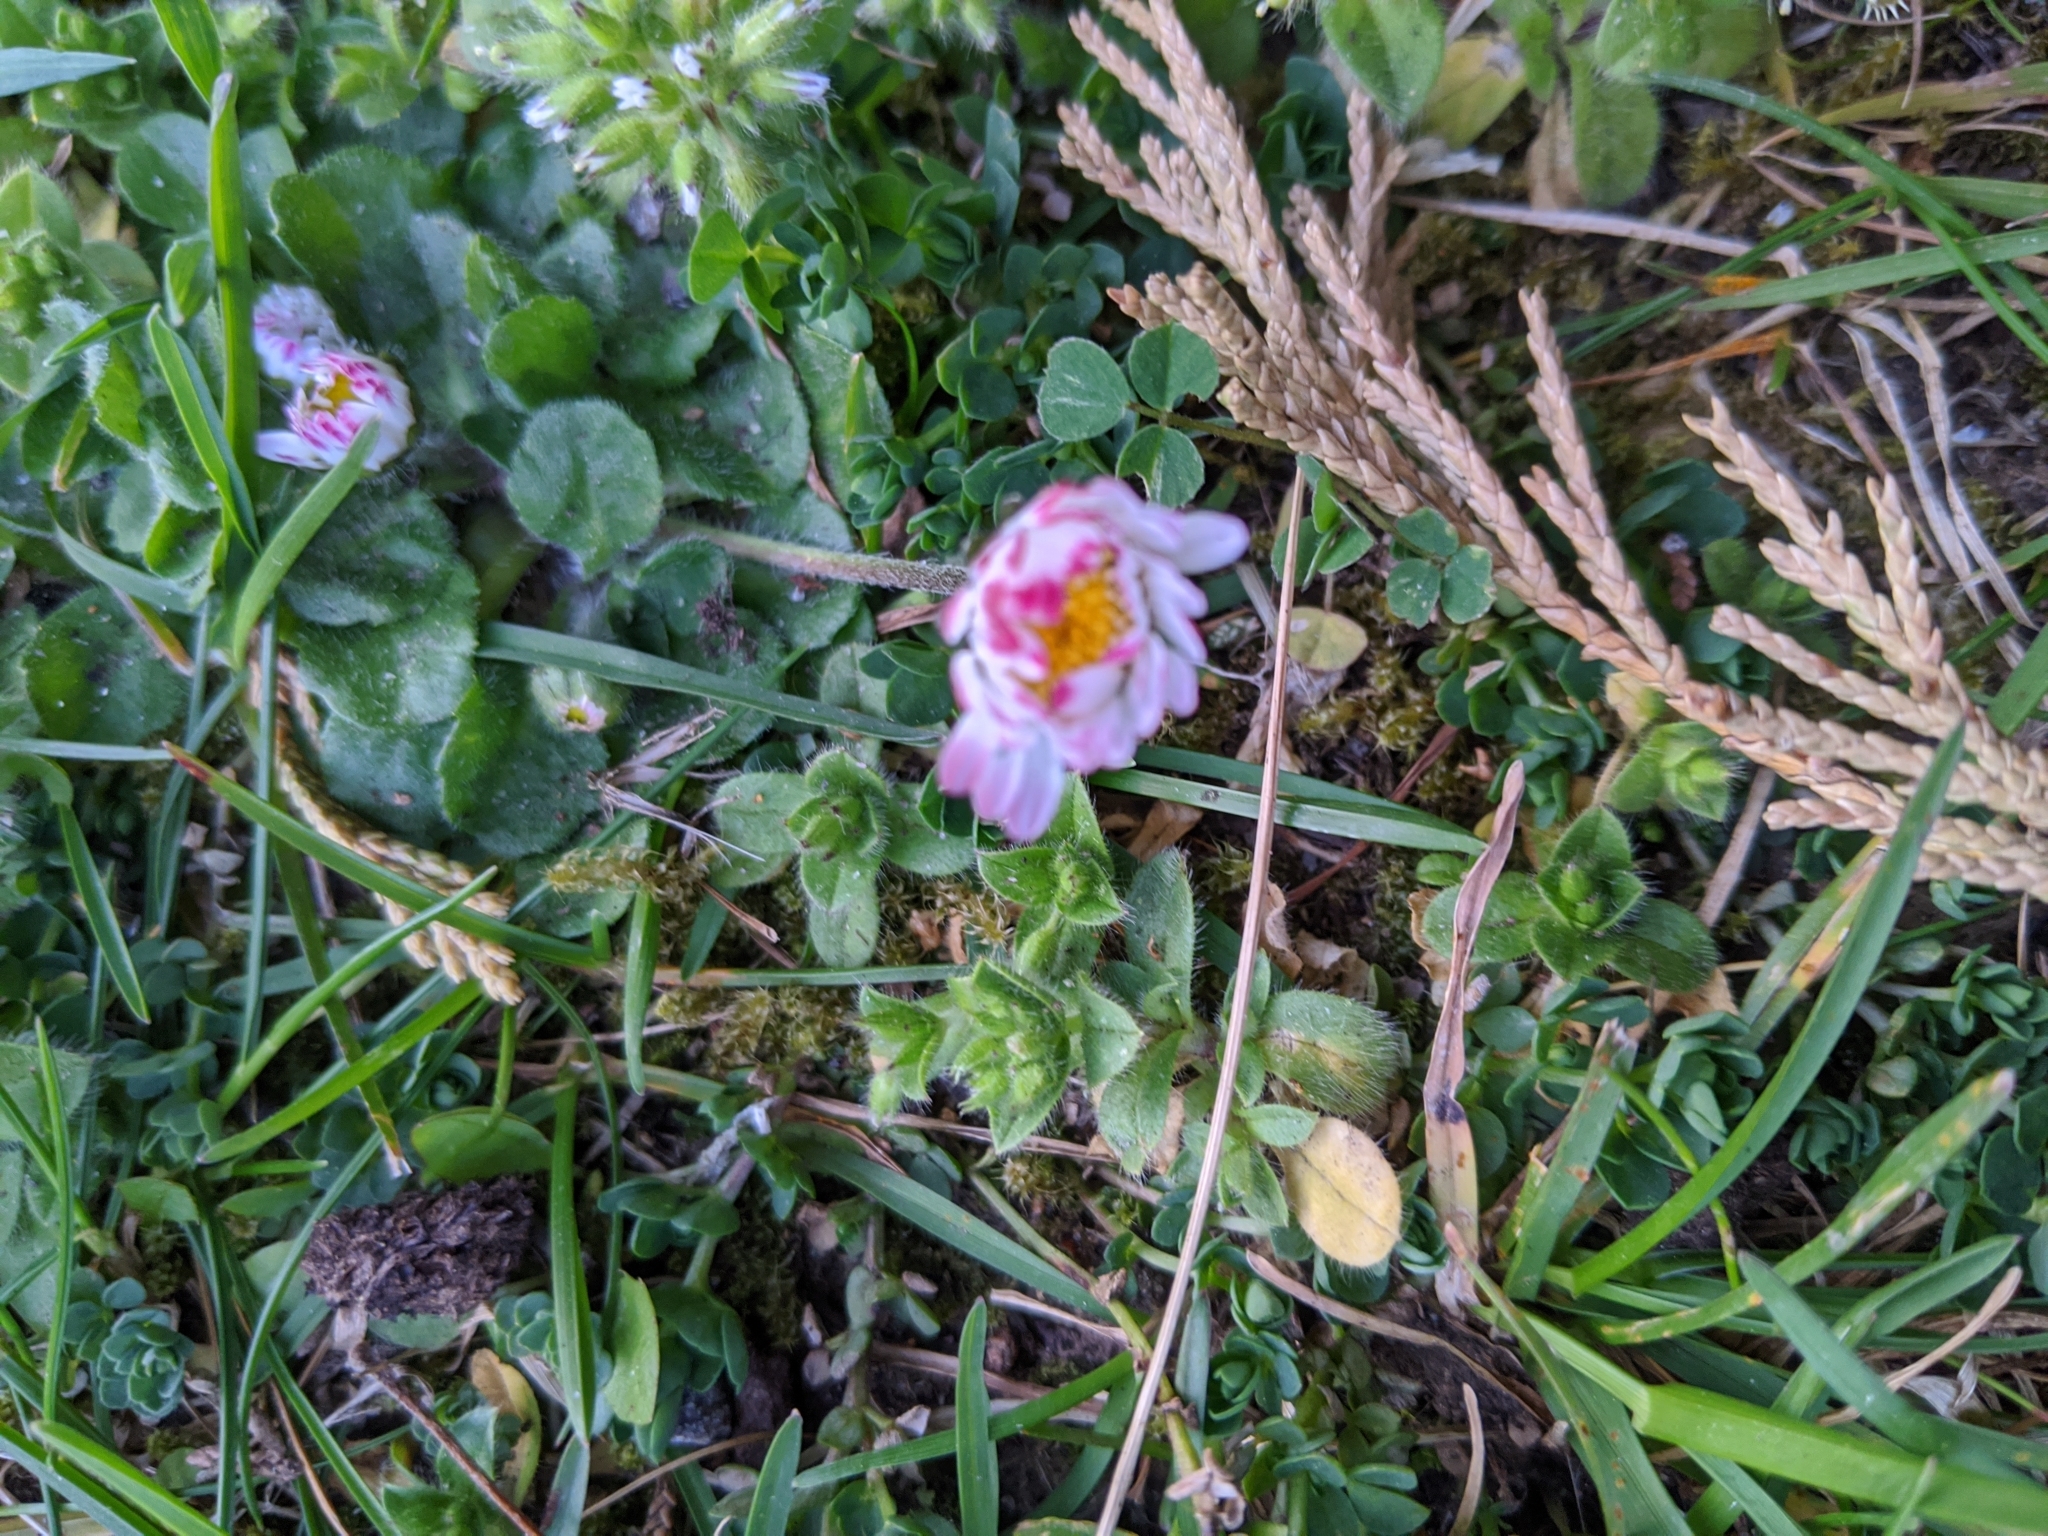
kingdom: Plantae
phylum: Tracheophyta
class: Magnoliopsida
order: Asterales
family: Asteraceae
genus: Bellis
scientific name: Bellis perennis
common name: Lawndaisy
